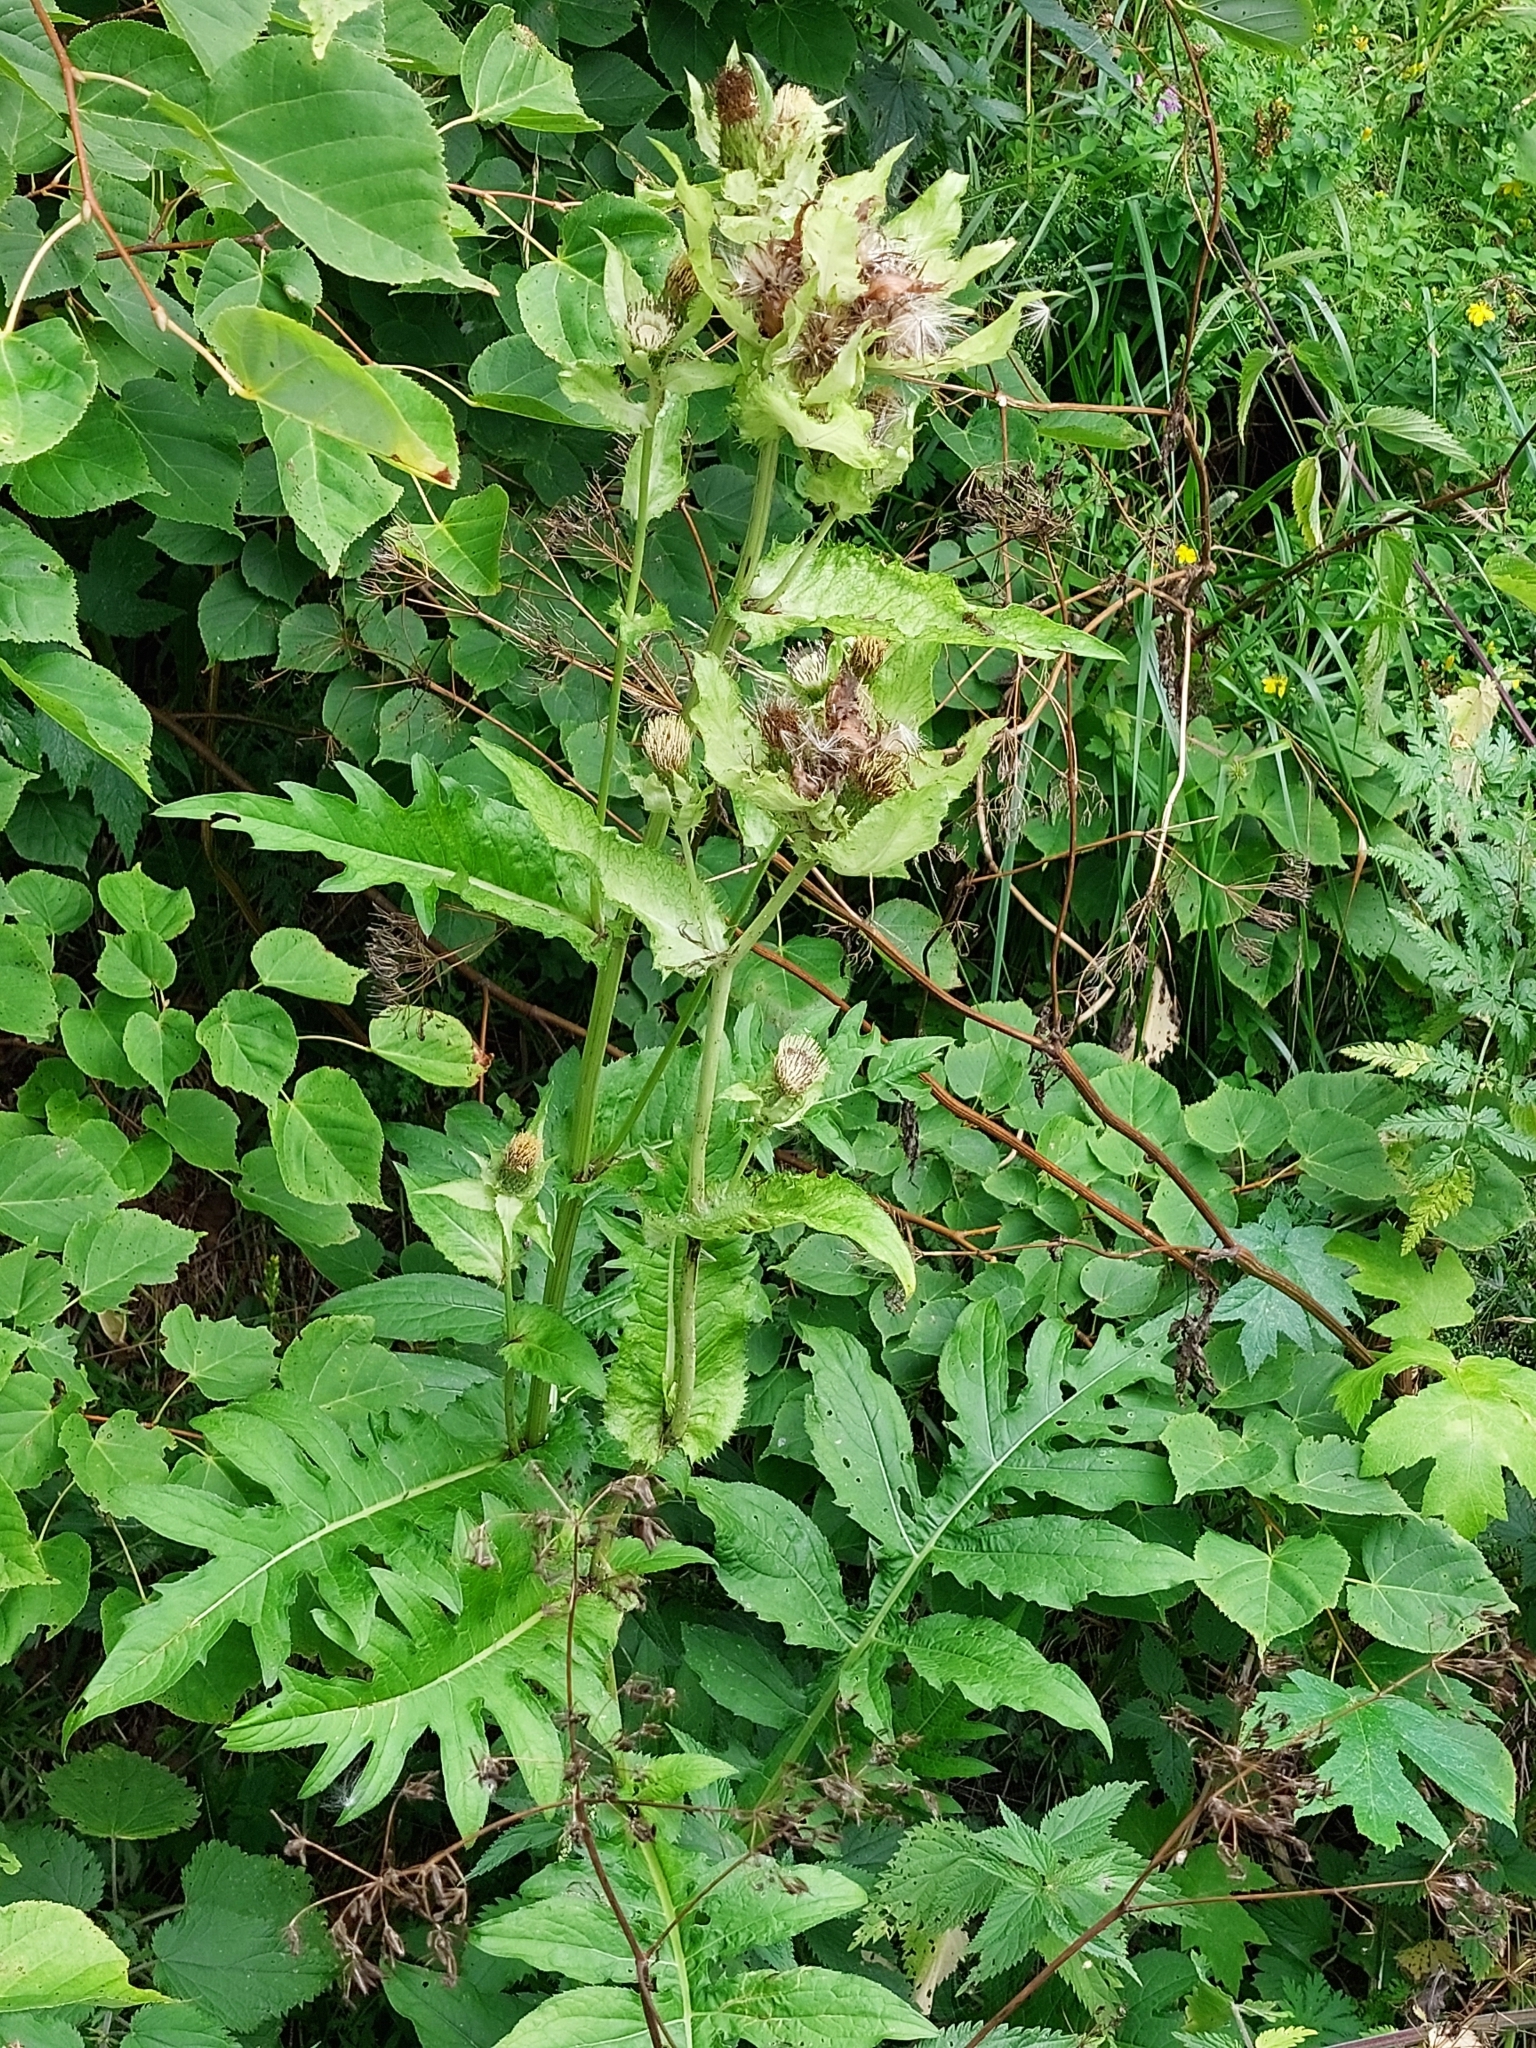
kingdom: Plantae
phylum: Tracheophyta
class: Magnoliopsida
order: Asterales
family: Asteraceae
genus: Cirsium
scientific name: Cirsium oleraceum
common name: Cabbage thistle
